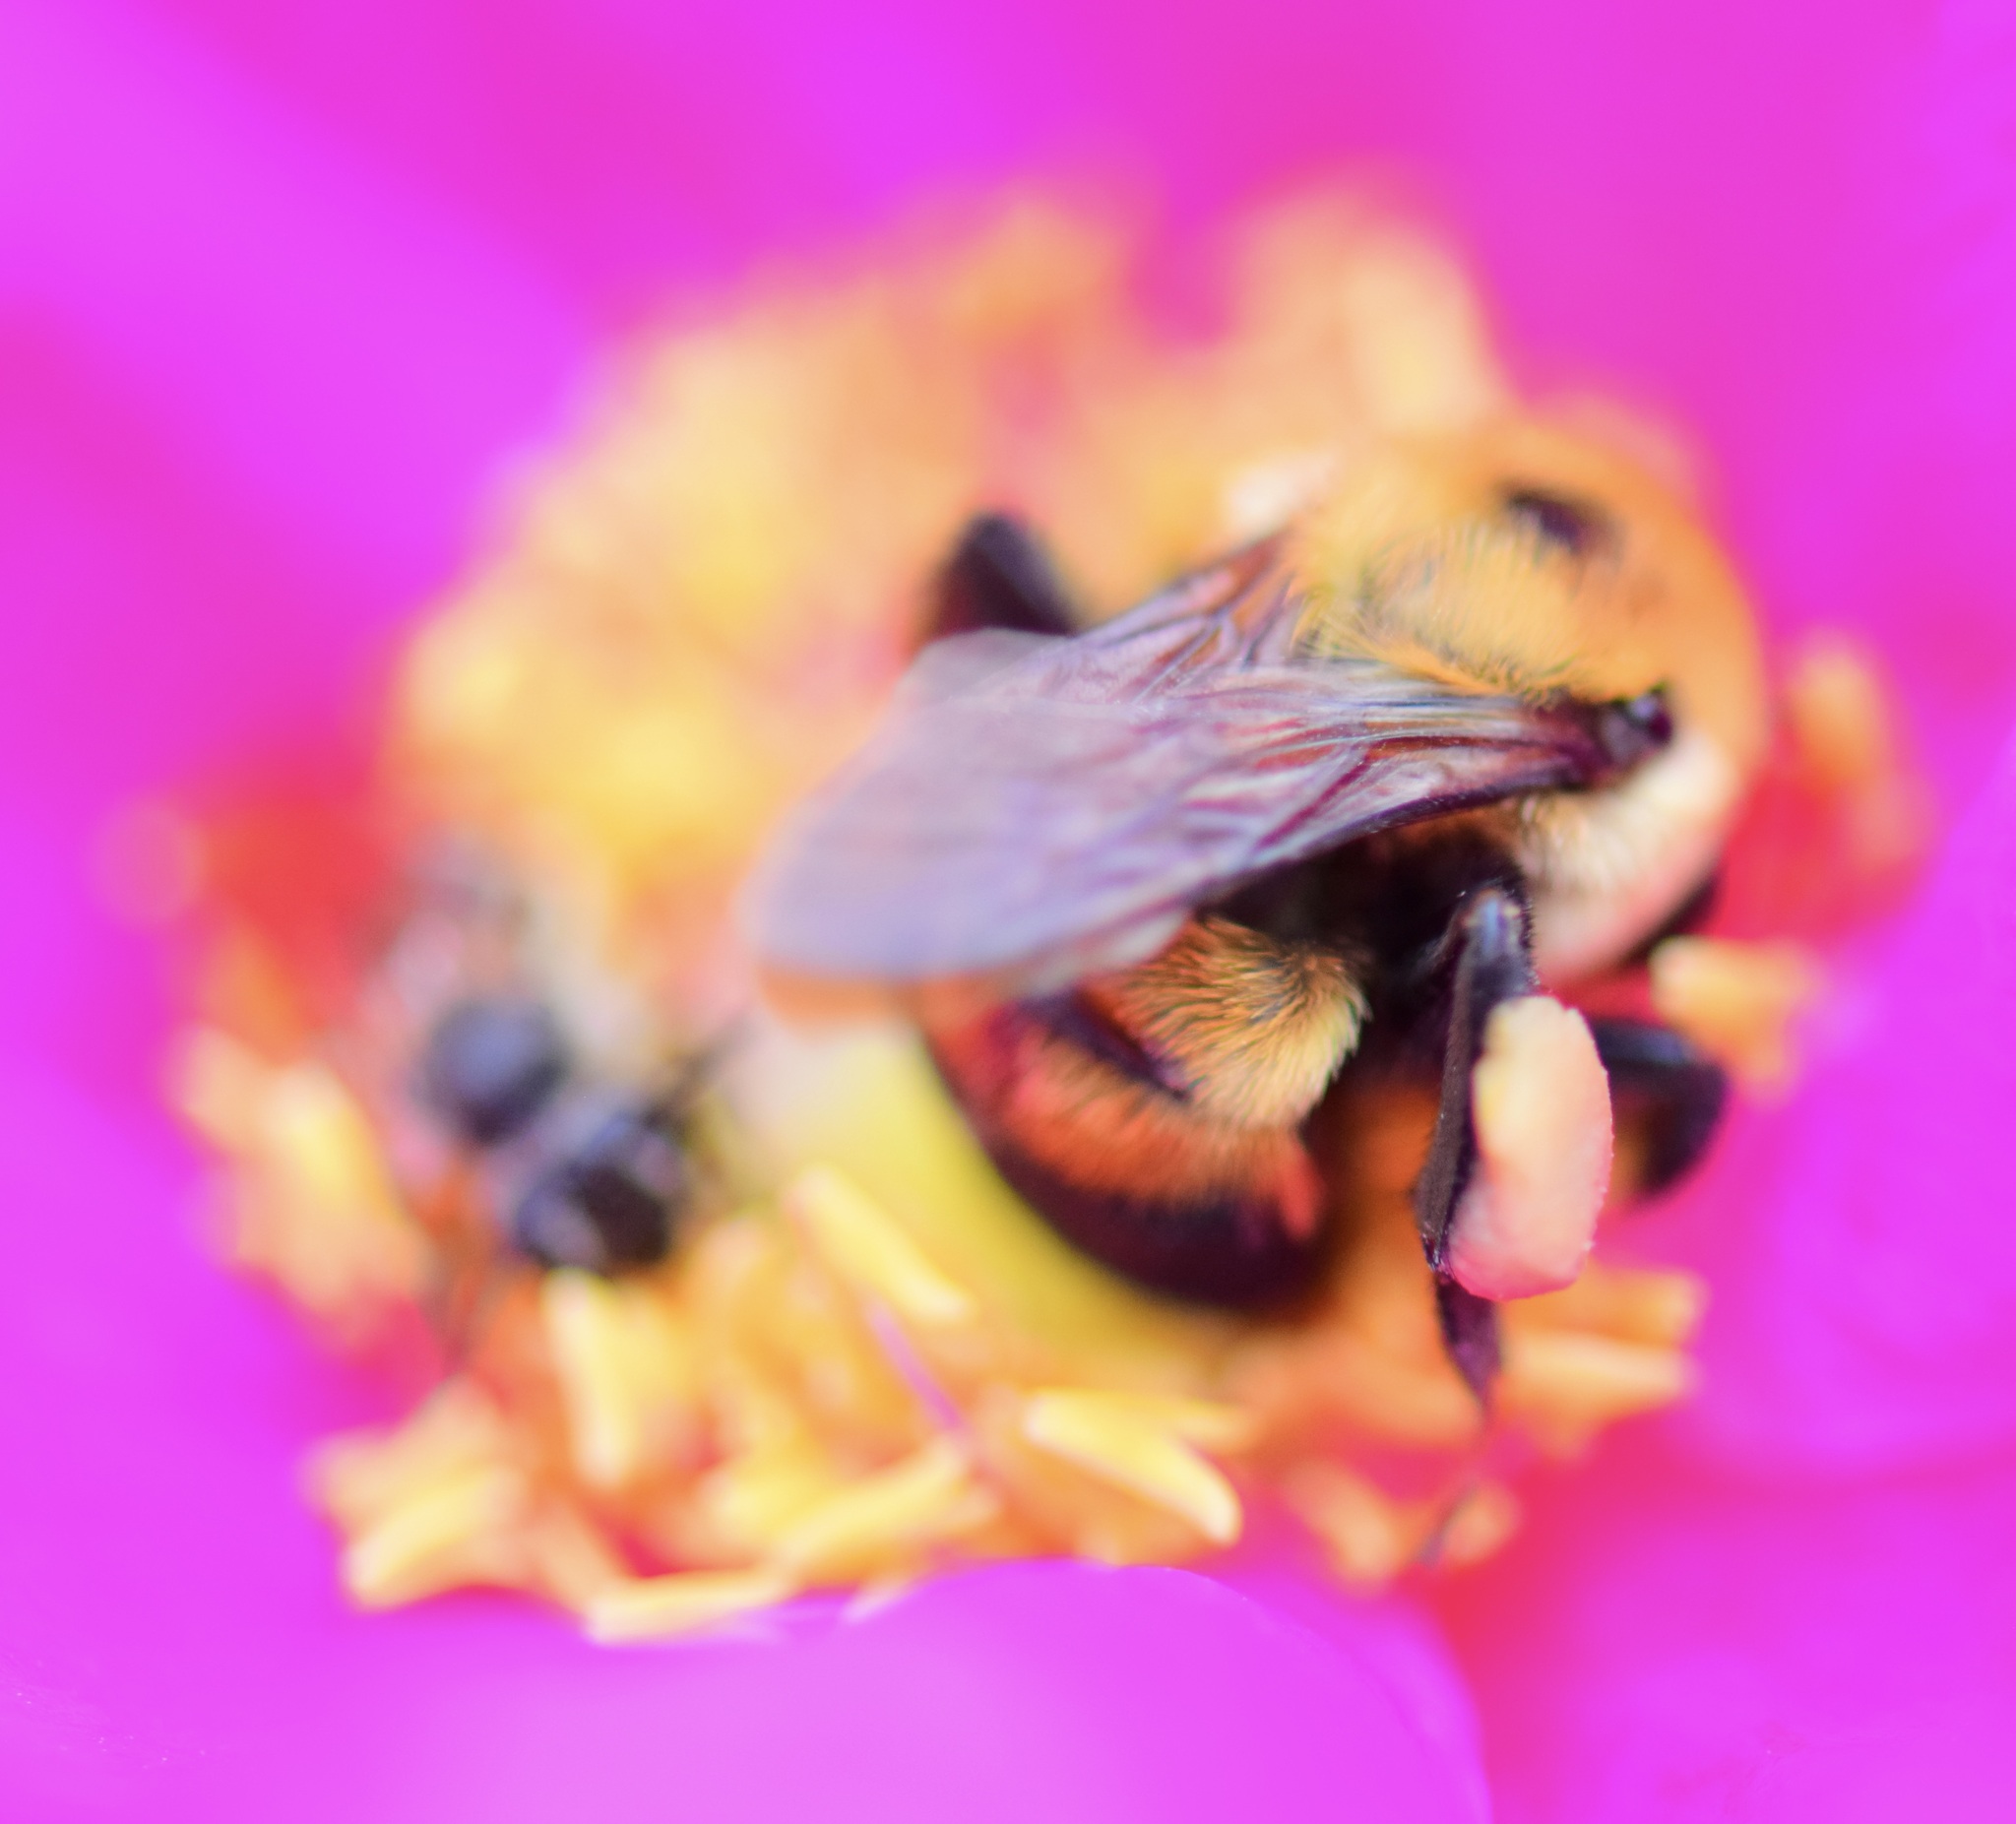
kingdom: Animalia
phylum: Arthropoda
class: Insecta
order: Hymenoptera
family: Apidae
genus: Bombus
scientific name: Bombus griseocollis
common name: Brown-belted bumble bee
